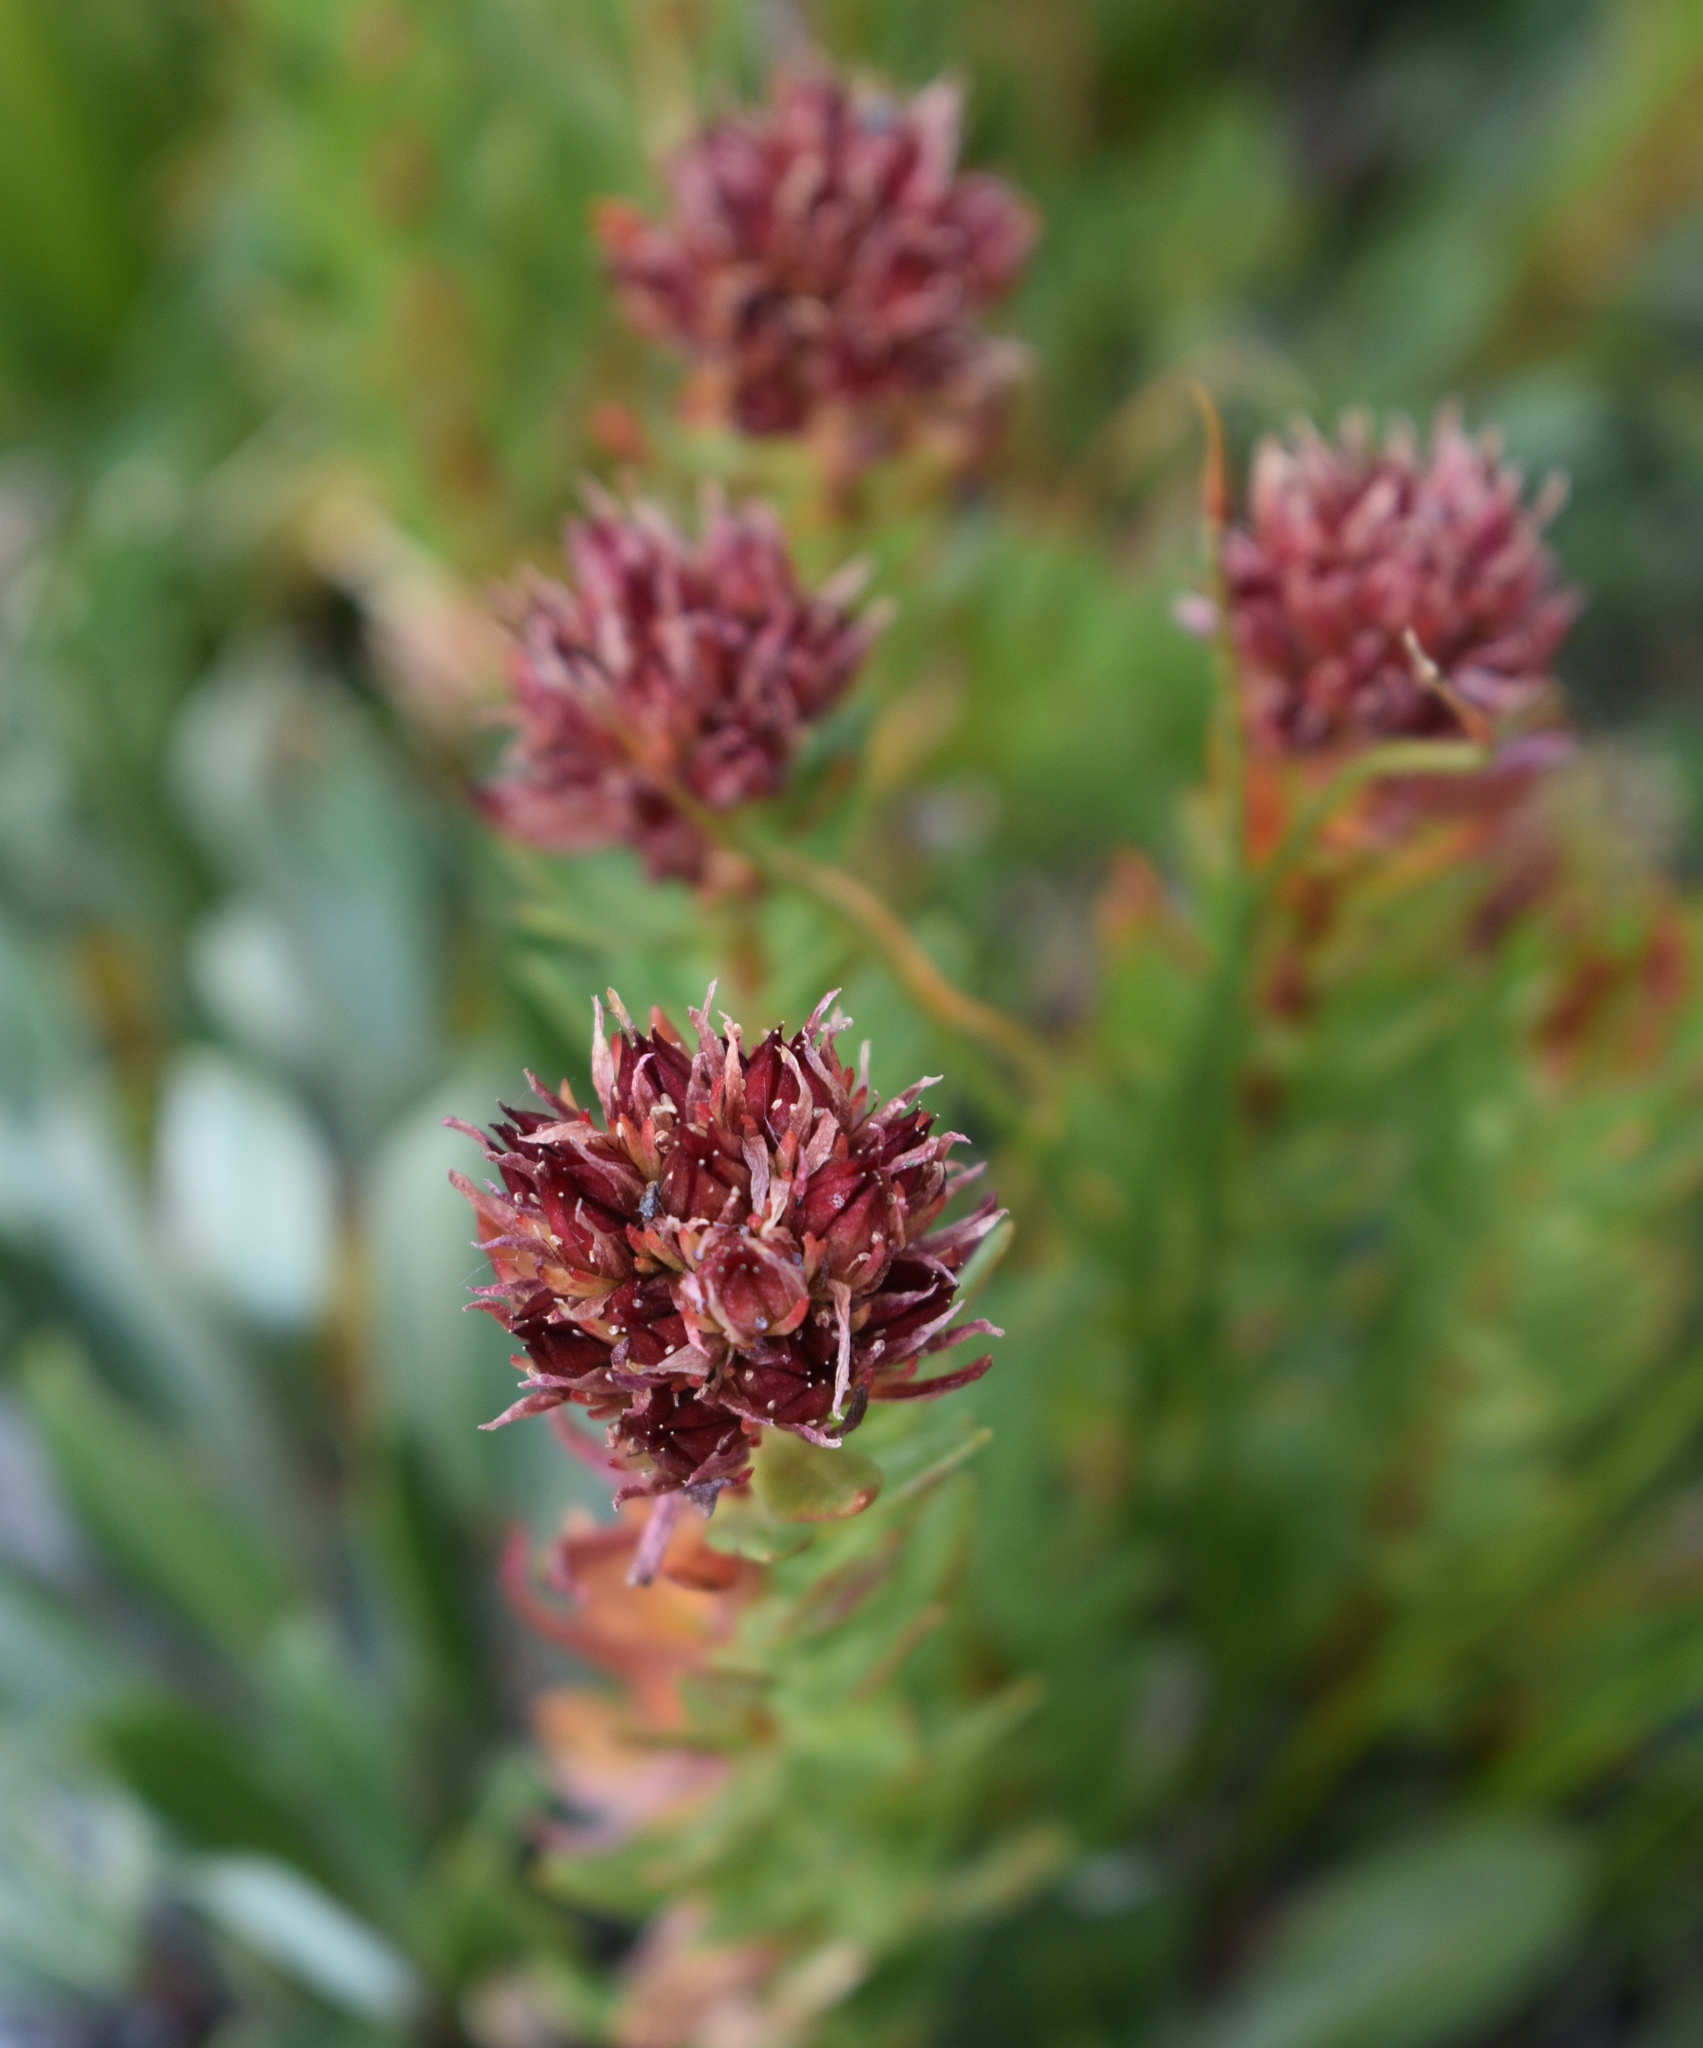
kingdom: Plantae
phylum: Tracheophyta
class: Magnoliopsida
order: Saxifragales
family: Crassulaceae
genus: Rhodiola
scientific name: Rhodiola rhodantha
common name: Red orpine
